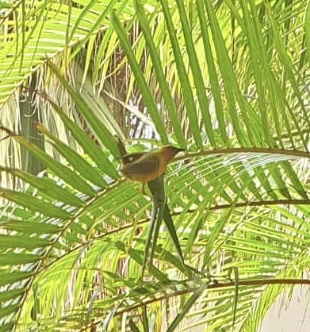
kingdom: Animalia
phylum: Chordata
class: Aves
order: Passeriformes
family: Ploceidae
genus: Ploceus
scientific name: Ploceus ocularis
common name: Spectacled weaver
